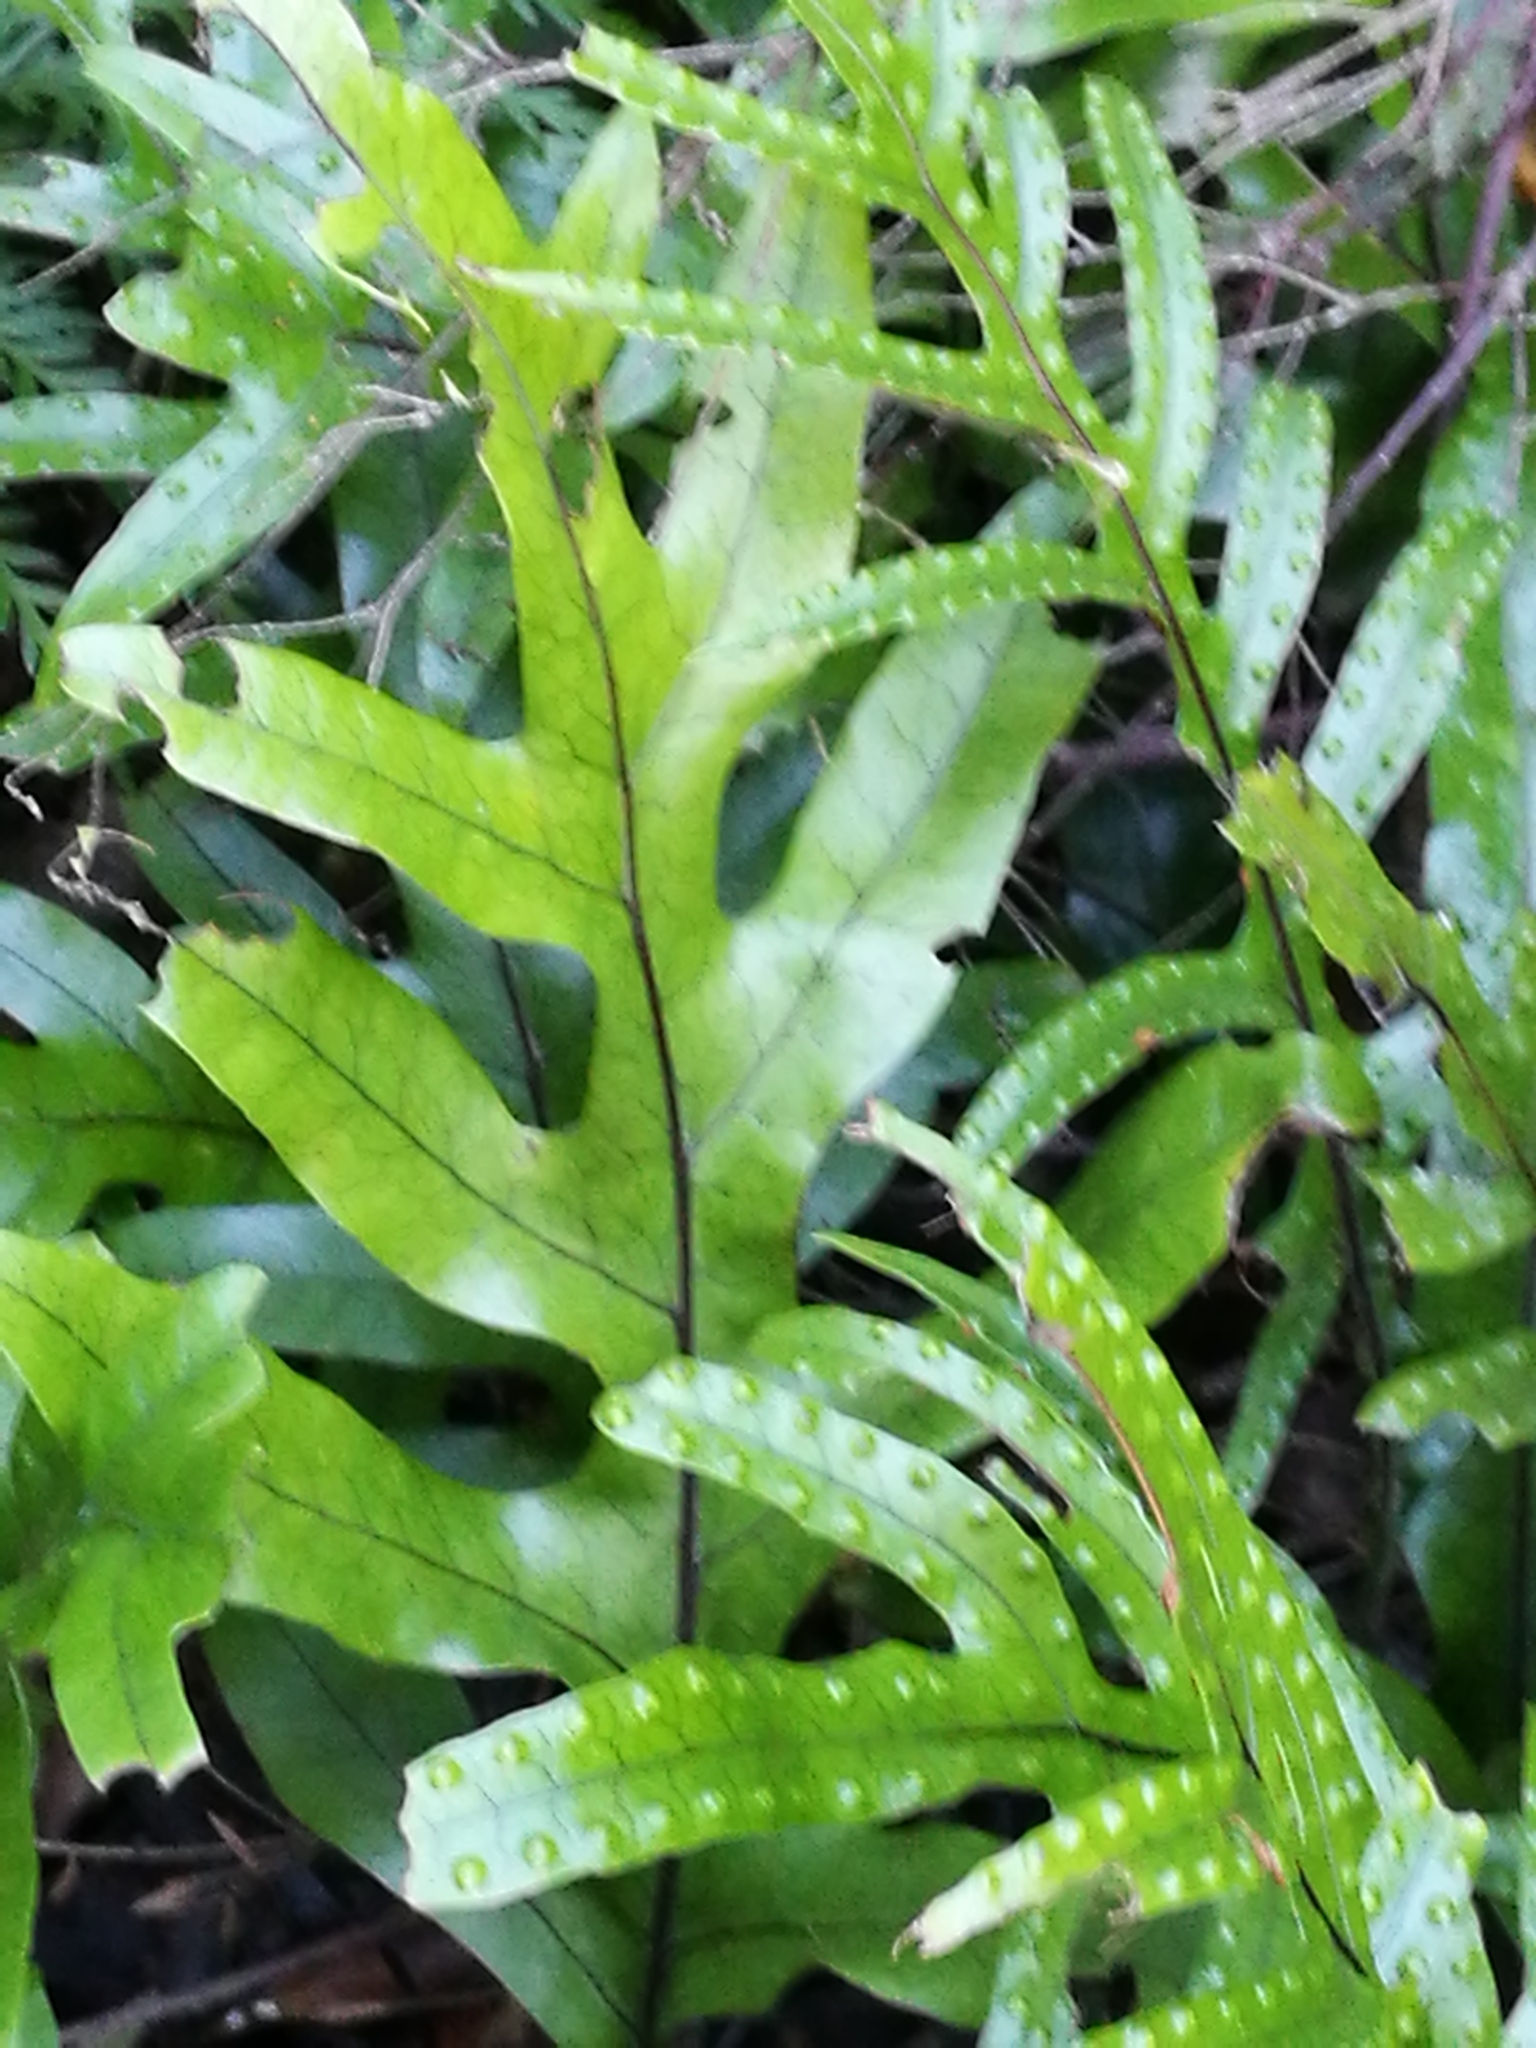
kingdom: Plantae
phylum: Tracheophyta
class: Polypodiopsida
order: Polypodiales
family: Polypodiaceae
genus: Lecanopteris
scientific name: Lecanopteris pustulata
